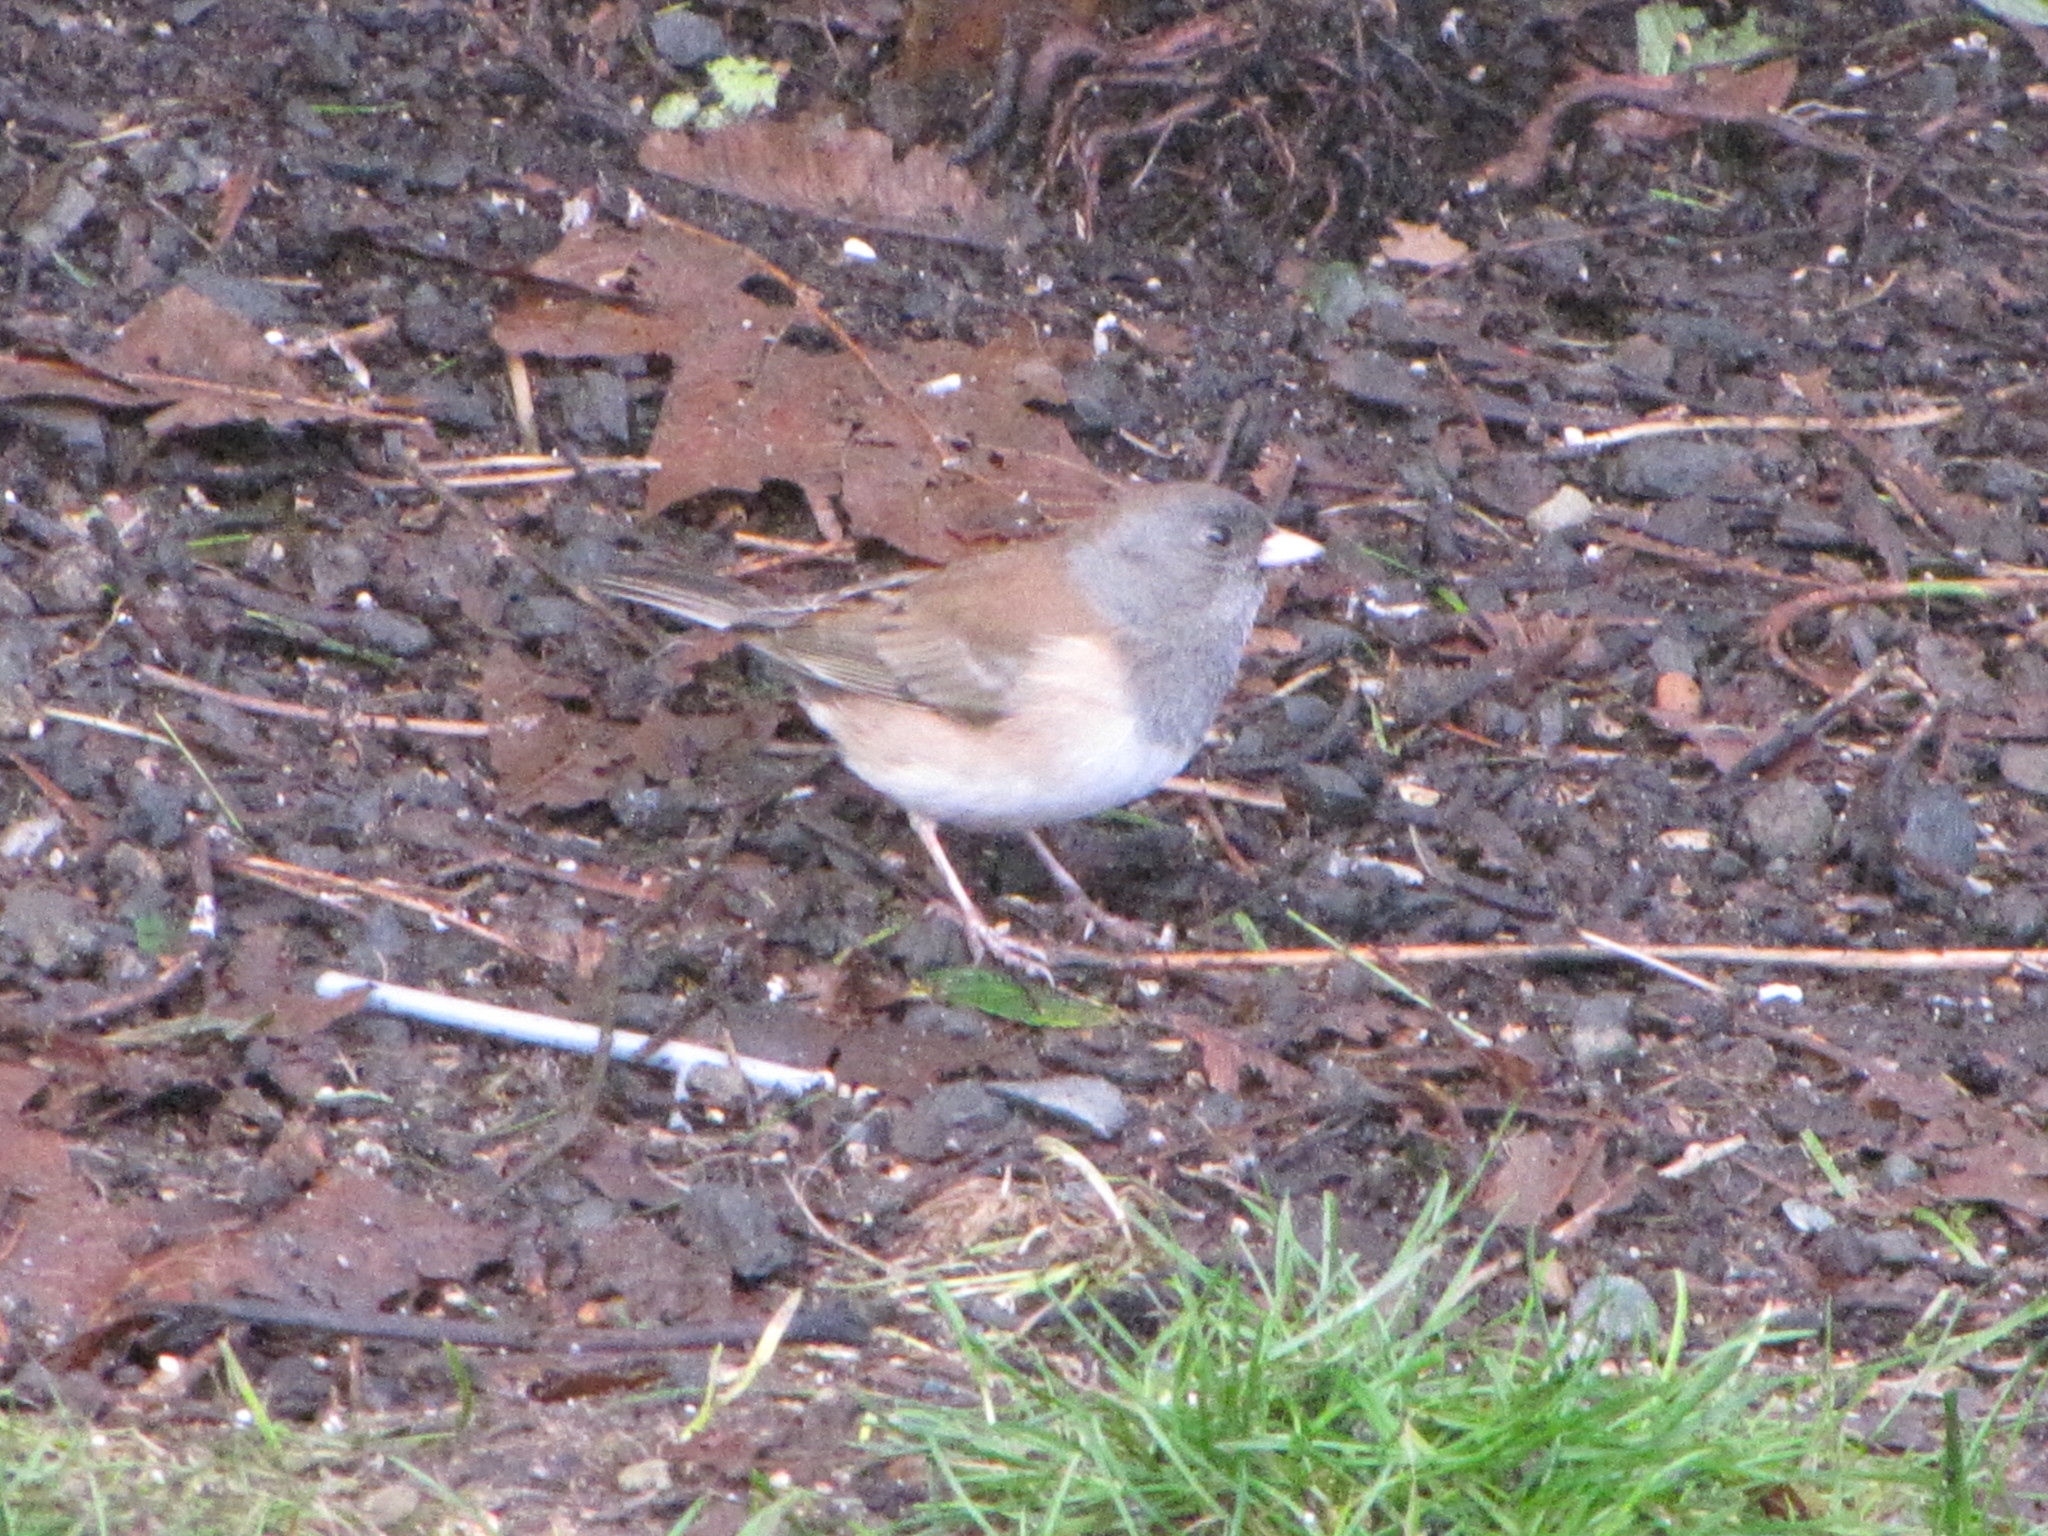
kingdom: Animalia
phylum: Chordata
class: Aves
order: Passeriformes
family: Passerellidae
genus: Junco
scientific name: Junco hyemalis
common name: Dark-eyed junco
